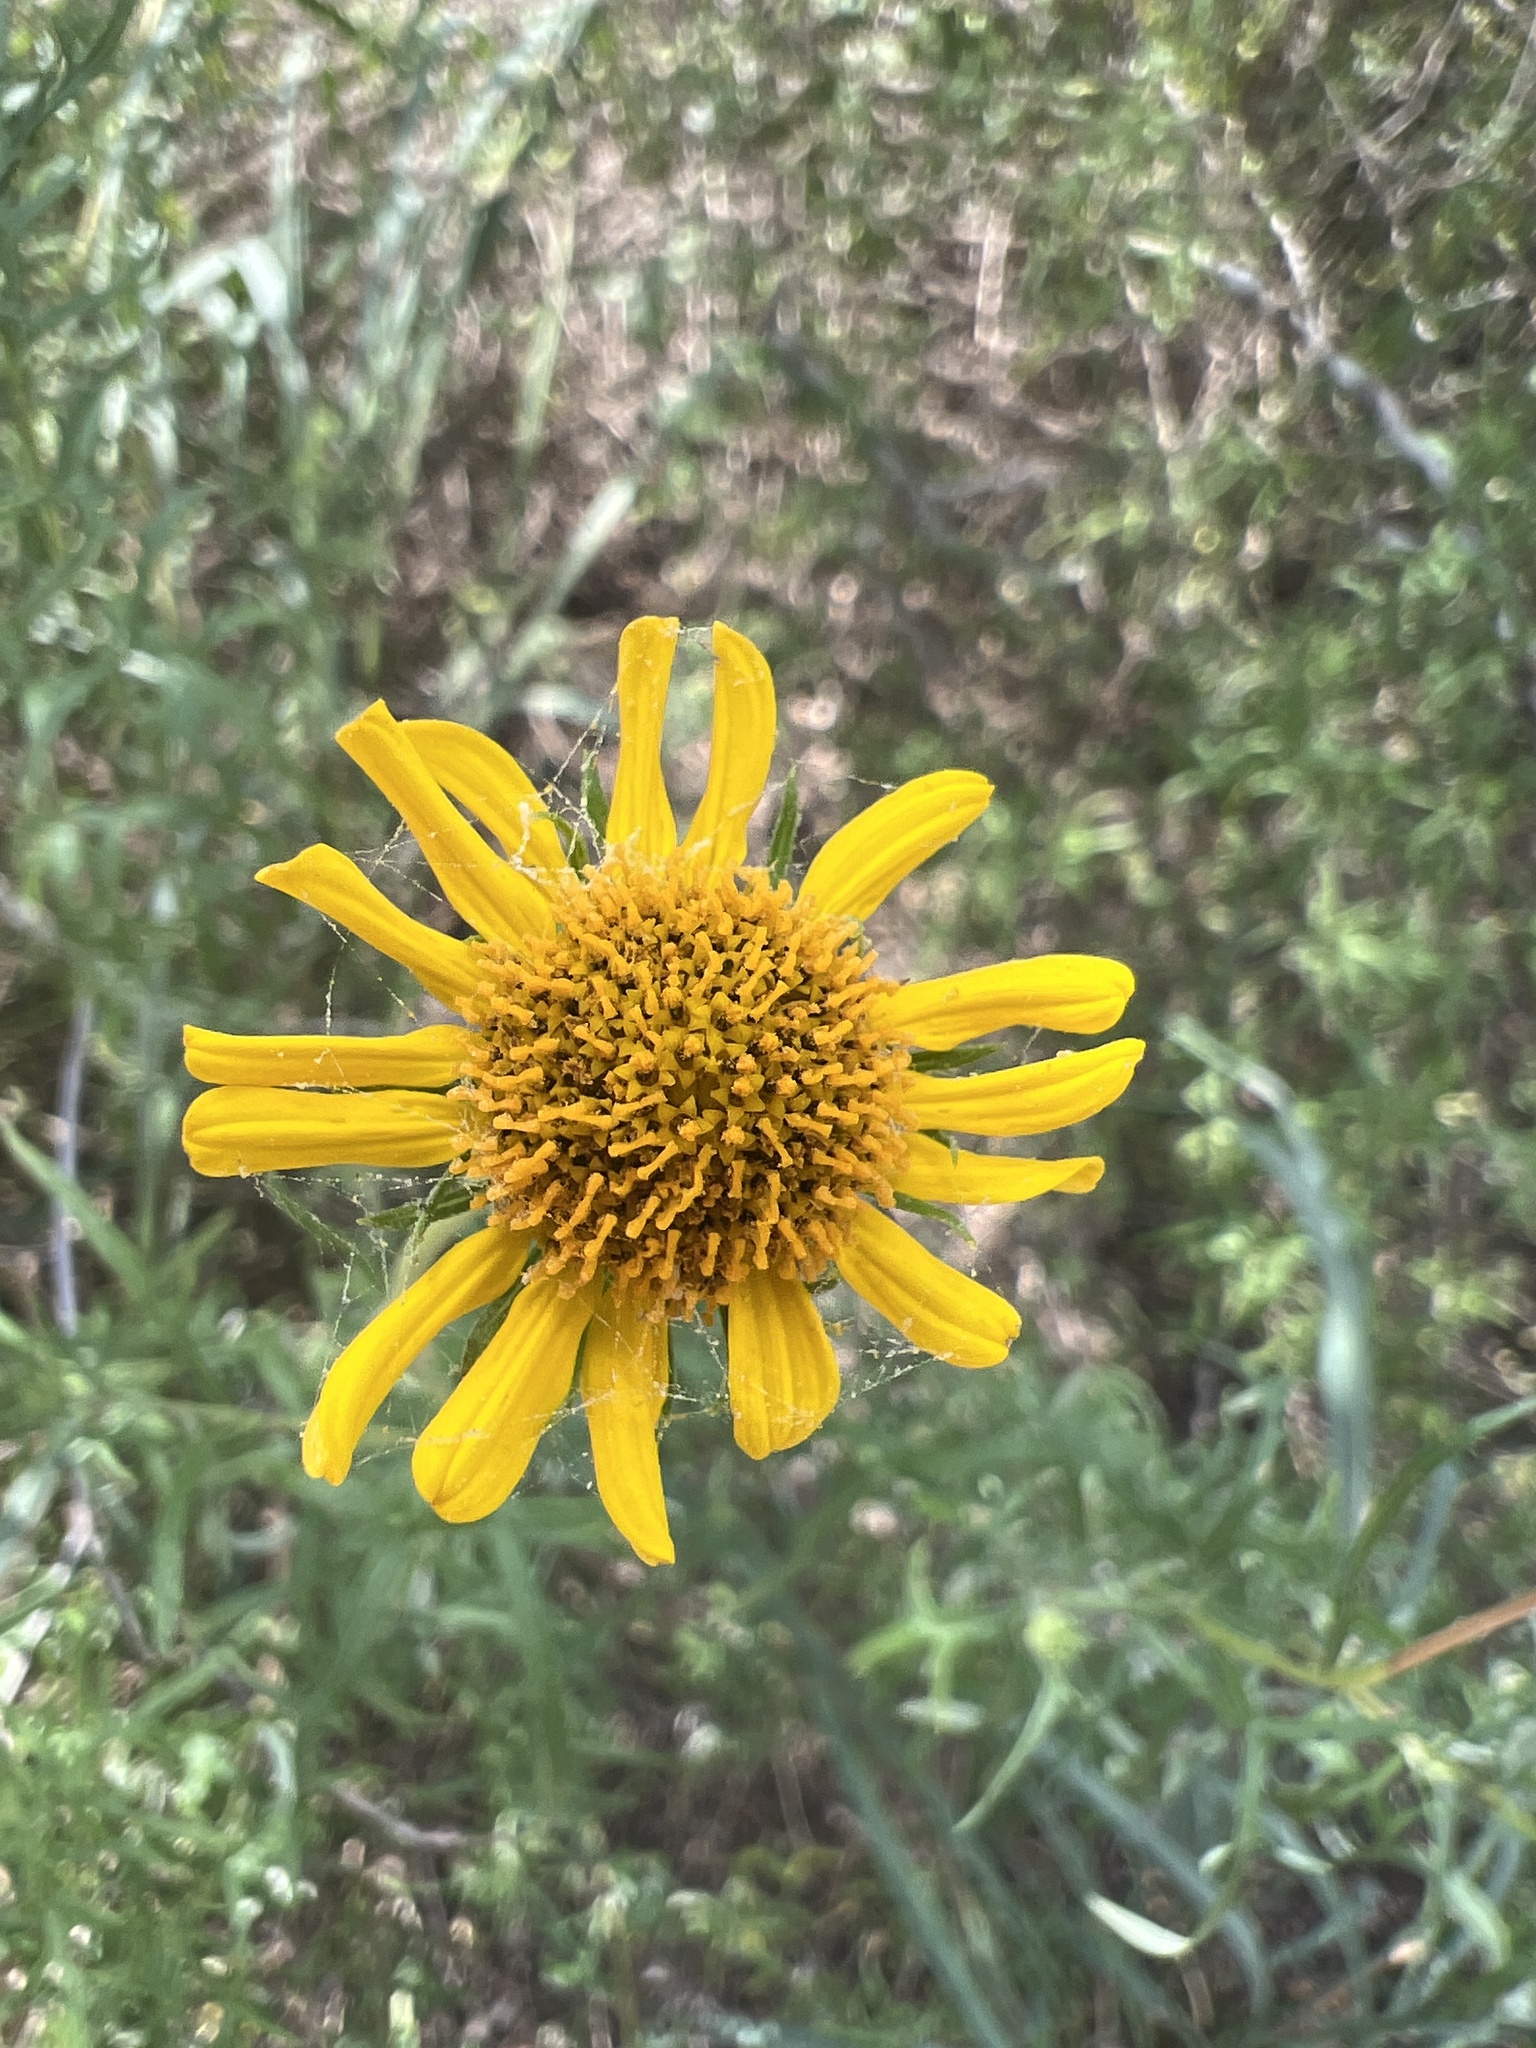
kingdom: Plantae
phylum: Tracheophyta
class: Magnoliopsida
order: Asterales
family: Asteraceae
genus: Sidneya
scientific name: Sidneya tenuifolia
